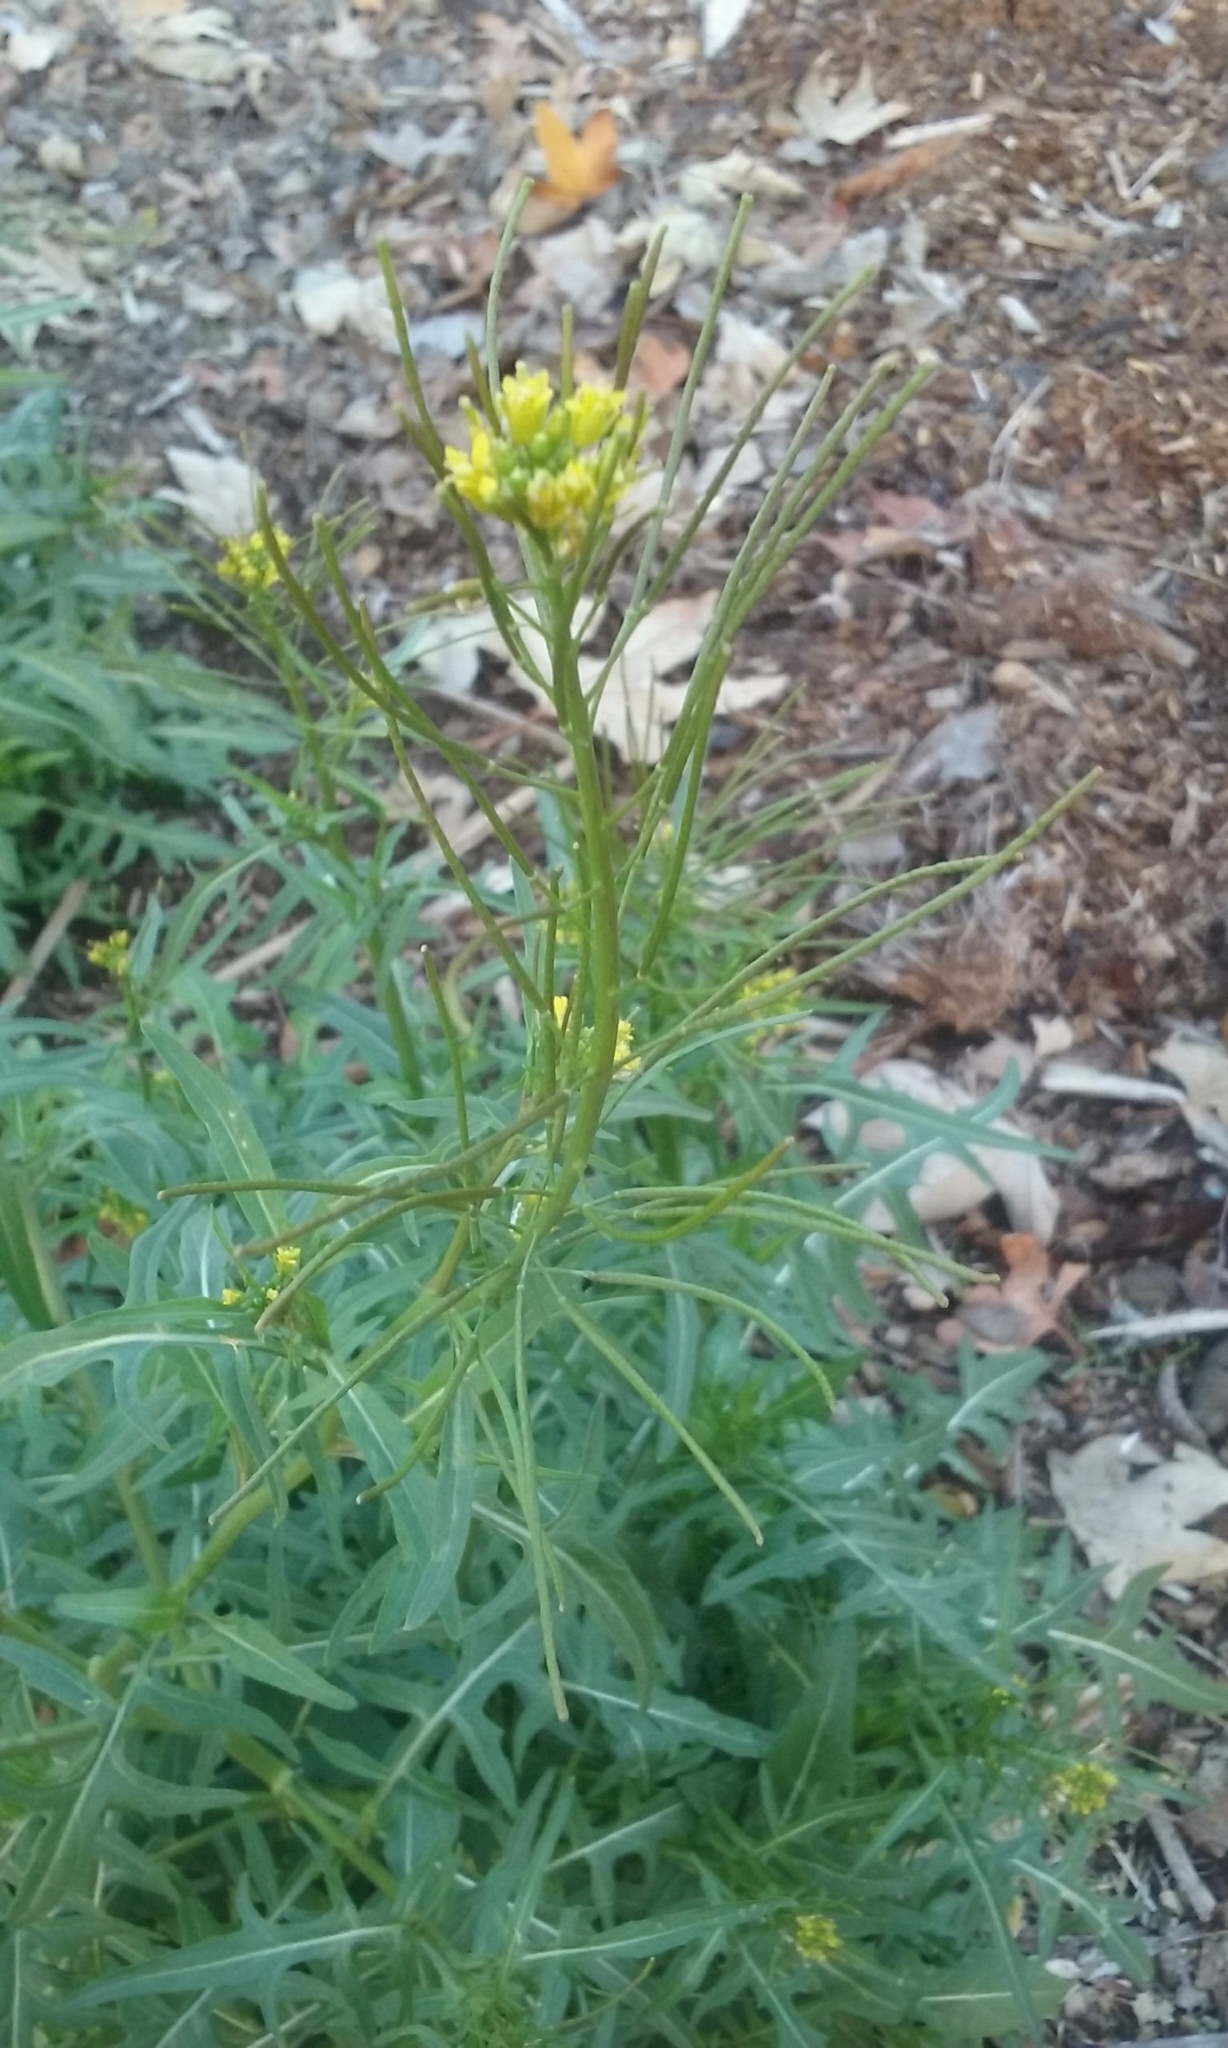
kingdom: Plantae
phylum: Tracheophyta
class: Magnoliopsida
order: Brassicales
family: Brassicaceae
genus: Sisymbrium
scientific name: Sisymbrium irio
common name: London rocket
